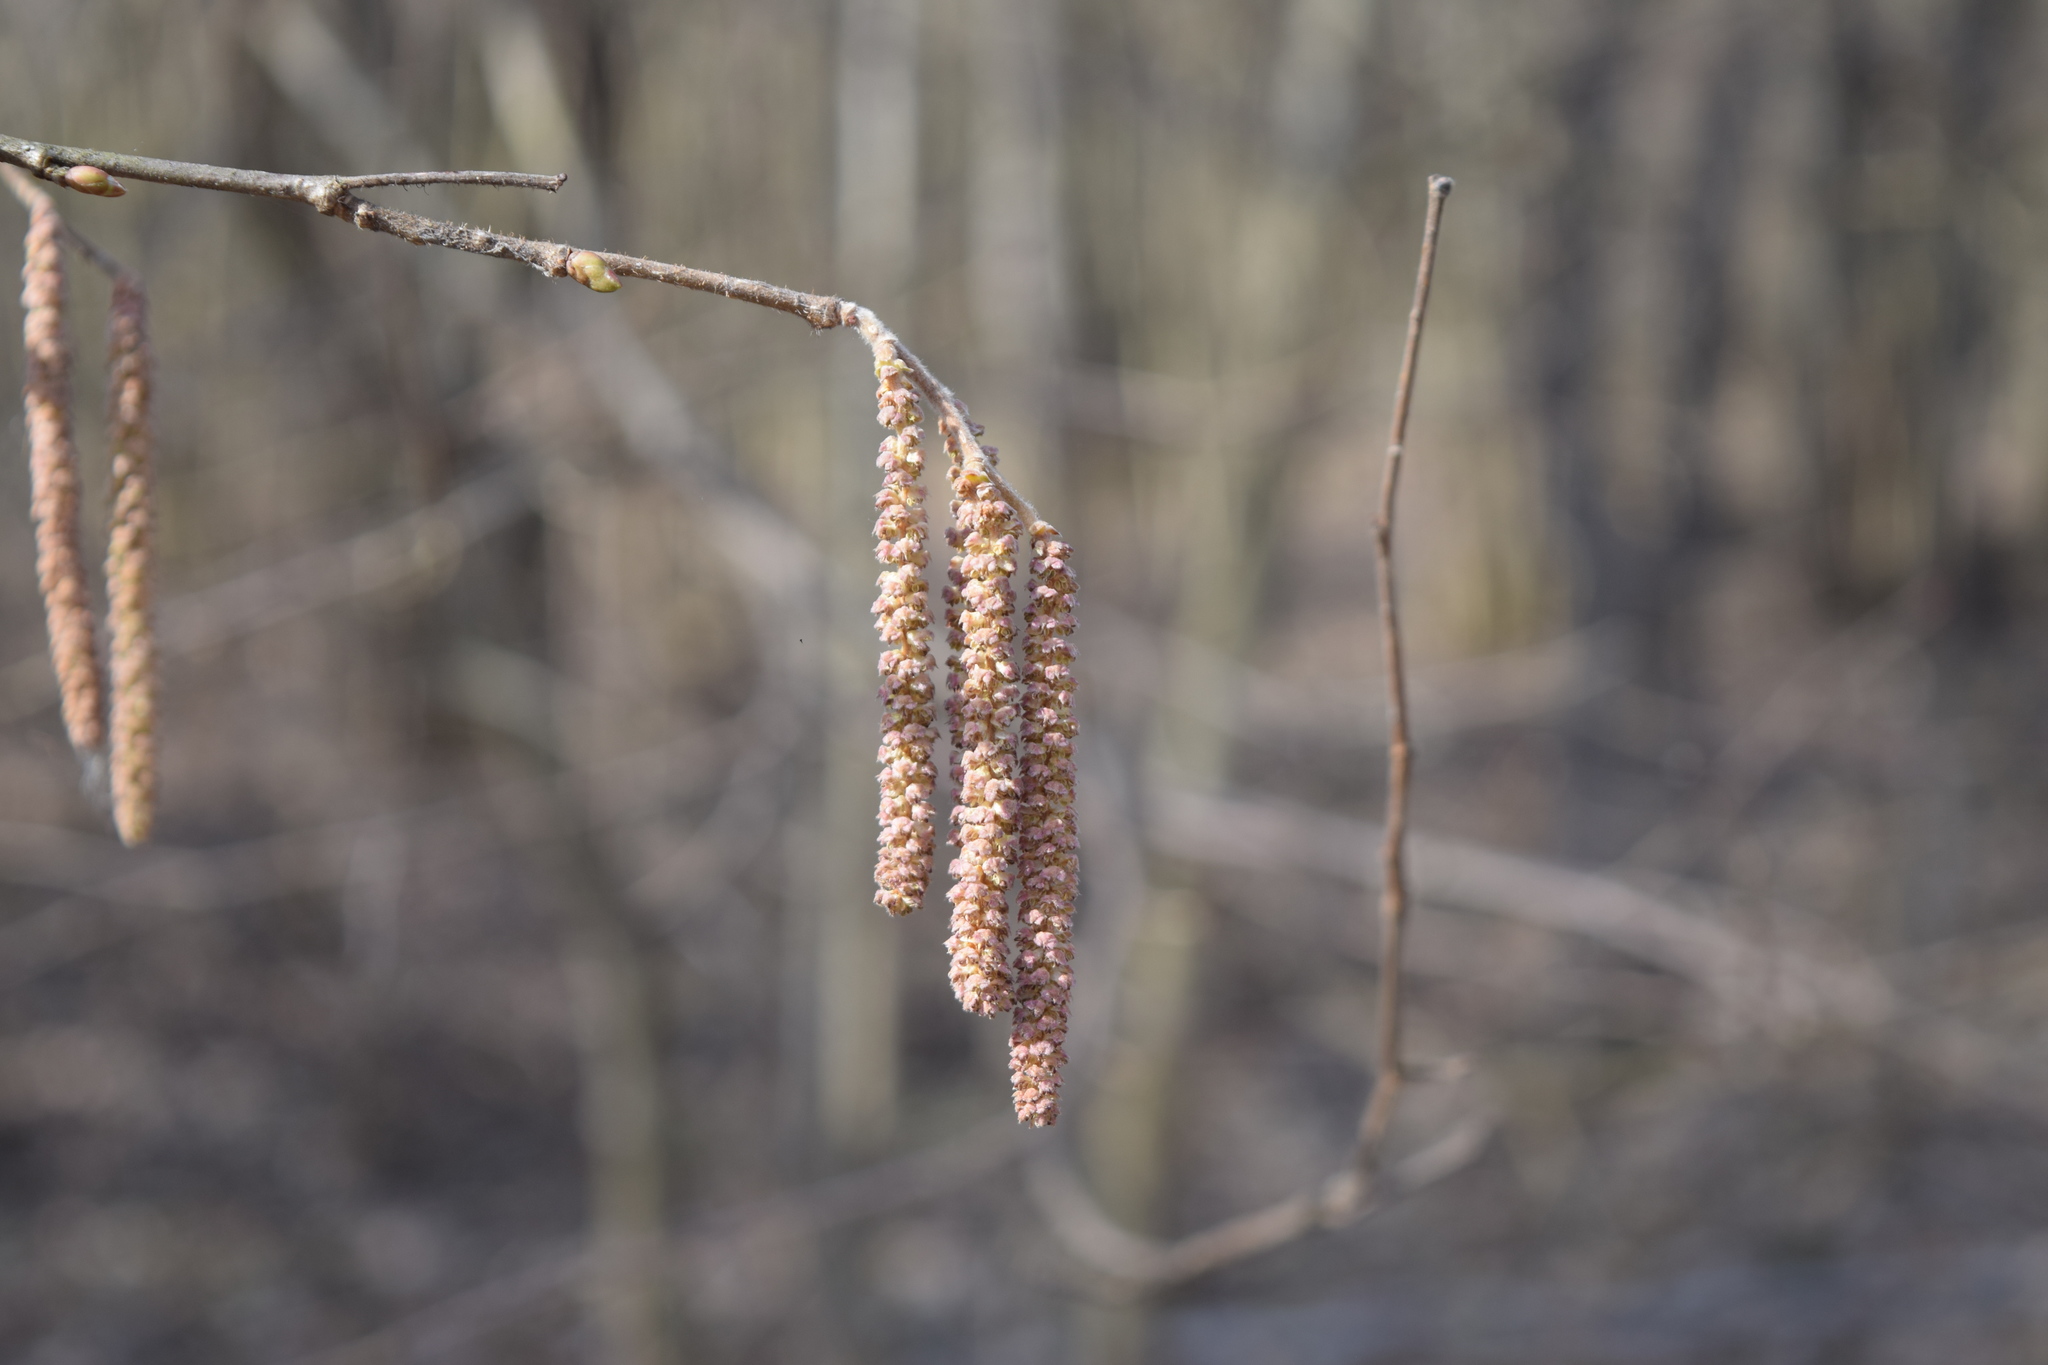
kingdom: Plantae
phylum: Tracheophyta
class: Magnoliopsida
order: Fagales
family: Betulaceae
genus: Corylus
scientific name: Corylus avellana
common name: European hazel
